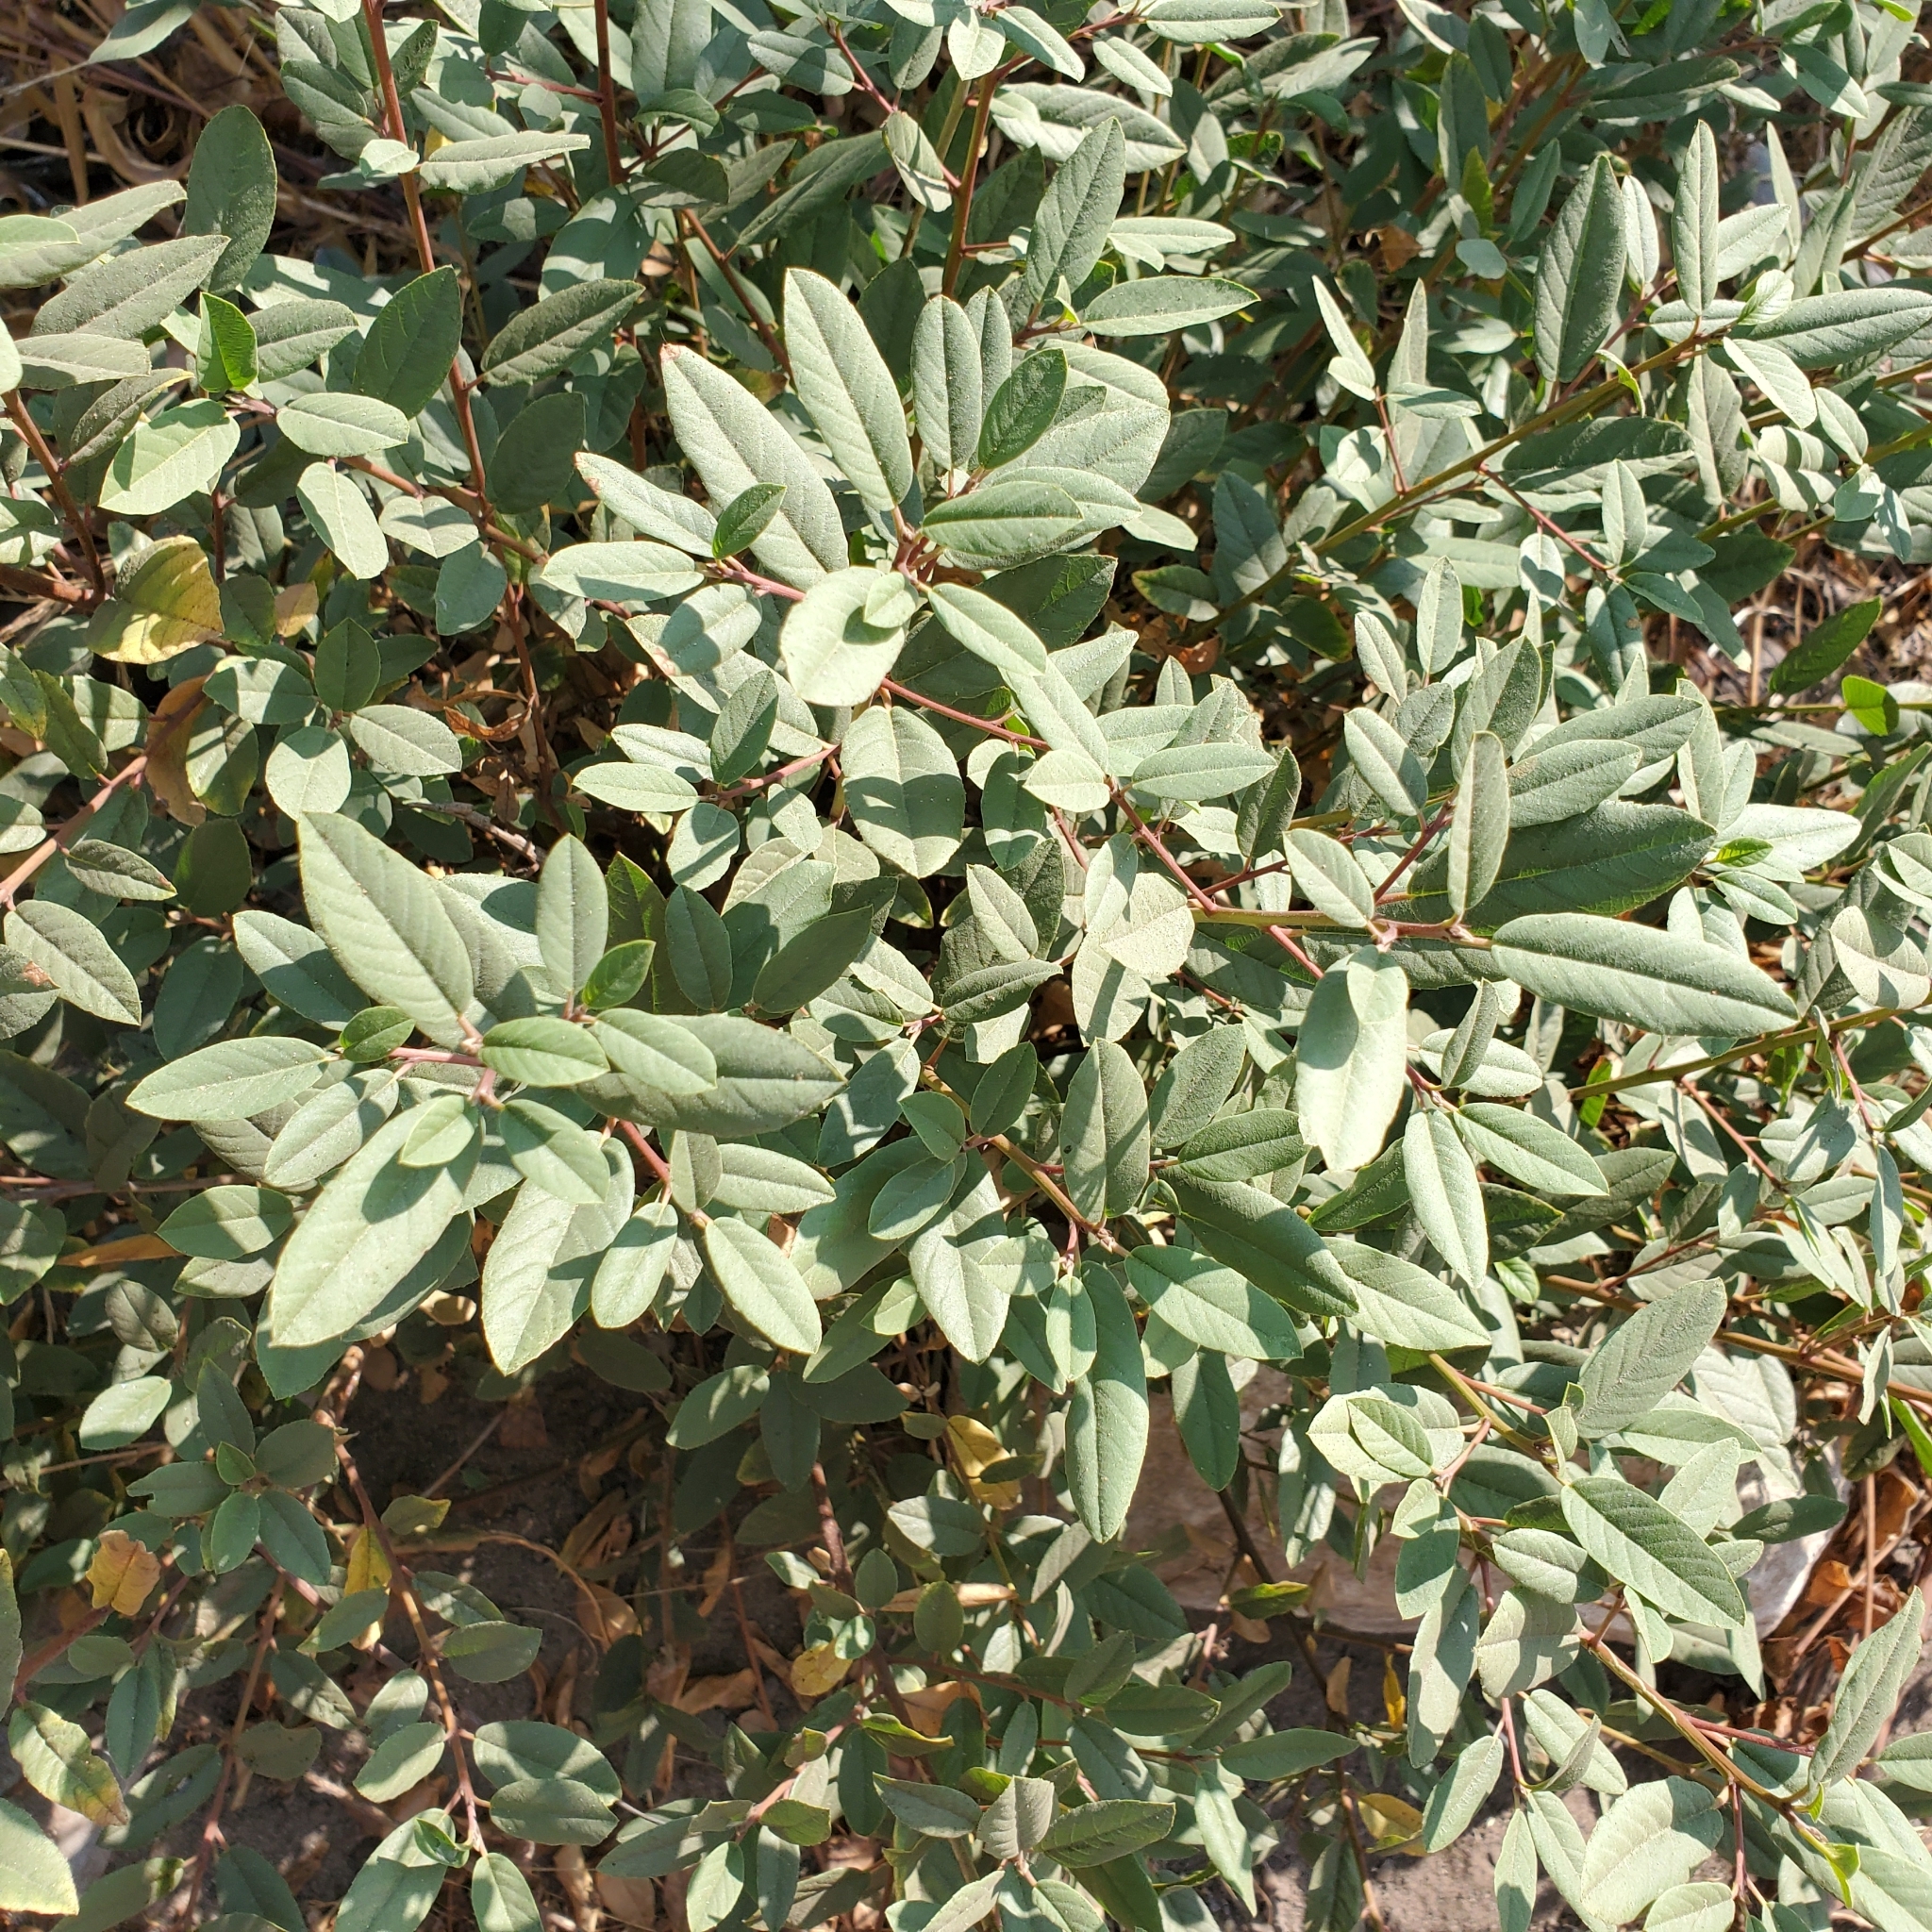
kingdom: Plantae
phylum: Tracheophyta
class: Magnoliopsida
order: Rosales
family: Rhamnaceae
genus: Frangula
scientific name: Frangula californica
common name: California buckthorn
